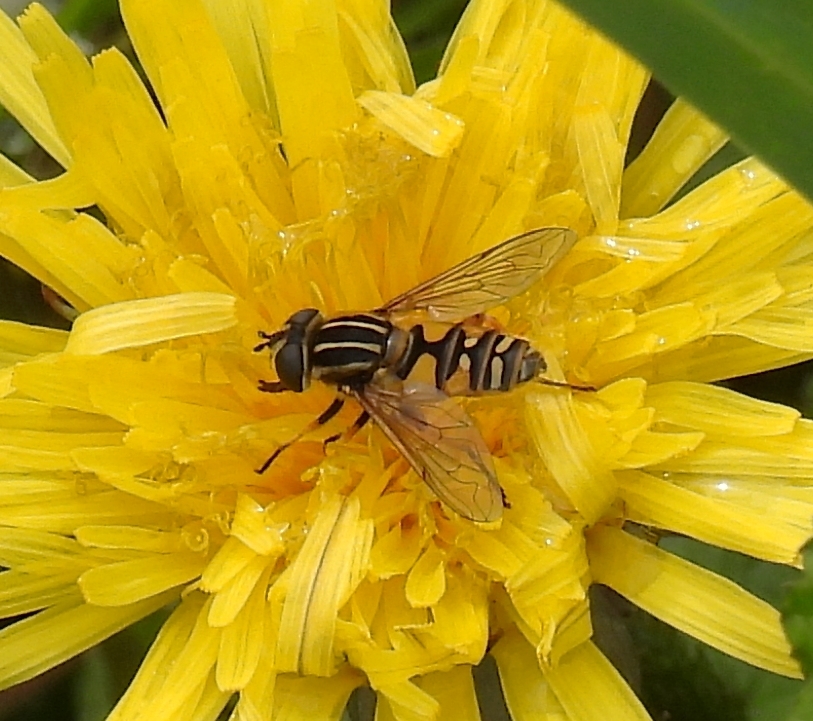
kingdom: Animalia
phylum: Arthropoda
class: Insecta
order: Diptera
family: Syrphidae
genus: Helophilus
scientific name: Helophilus pendulus
